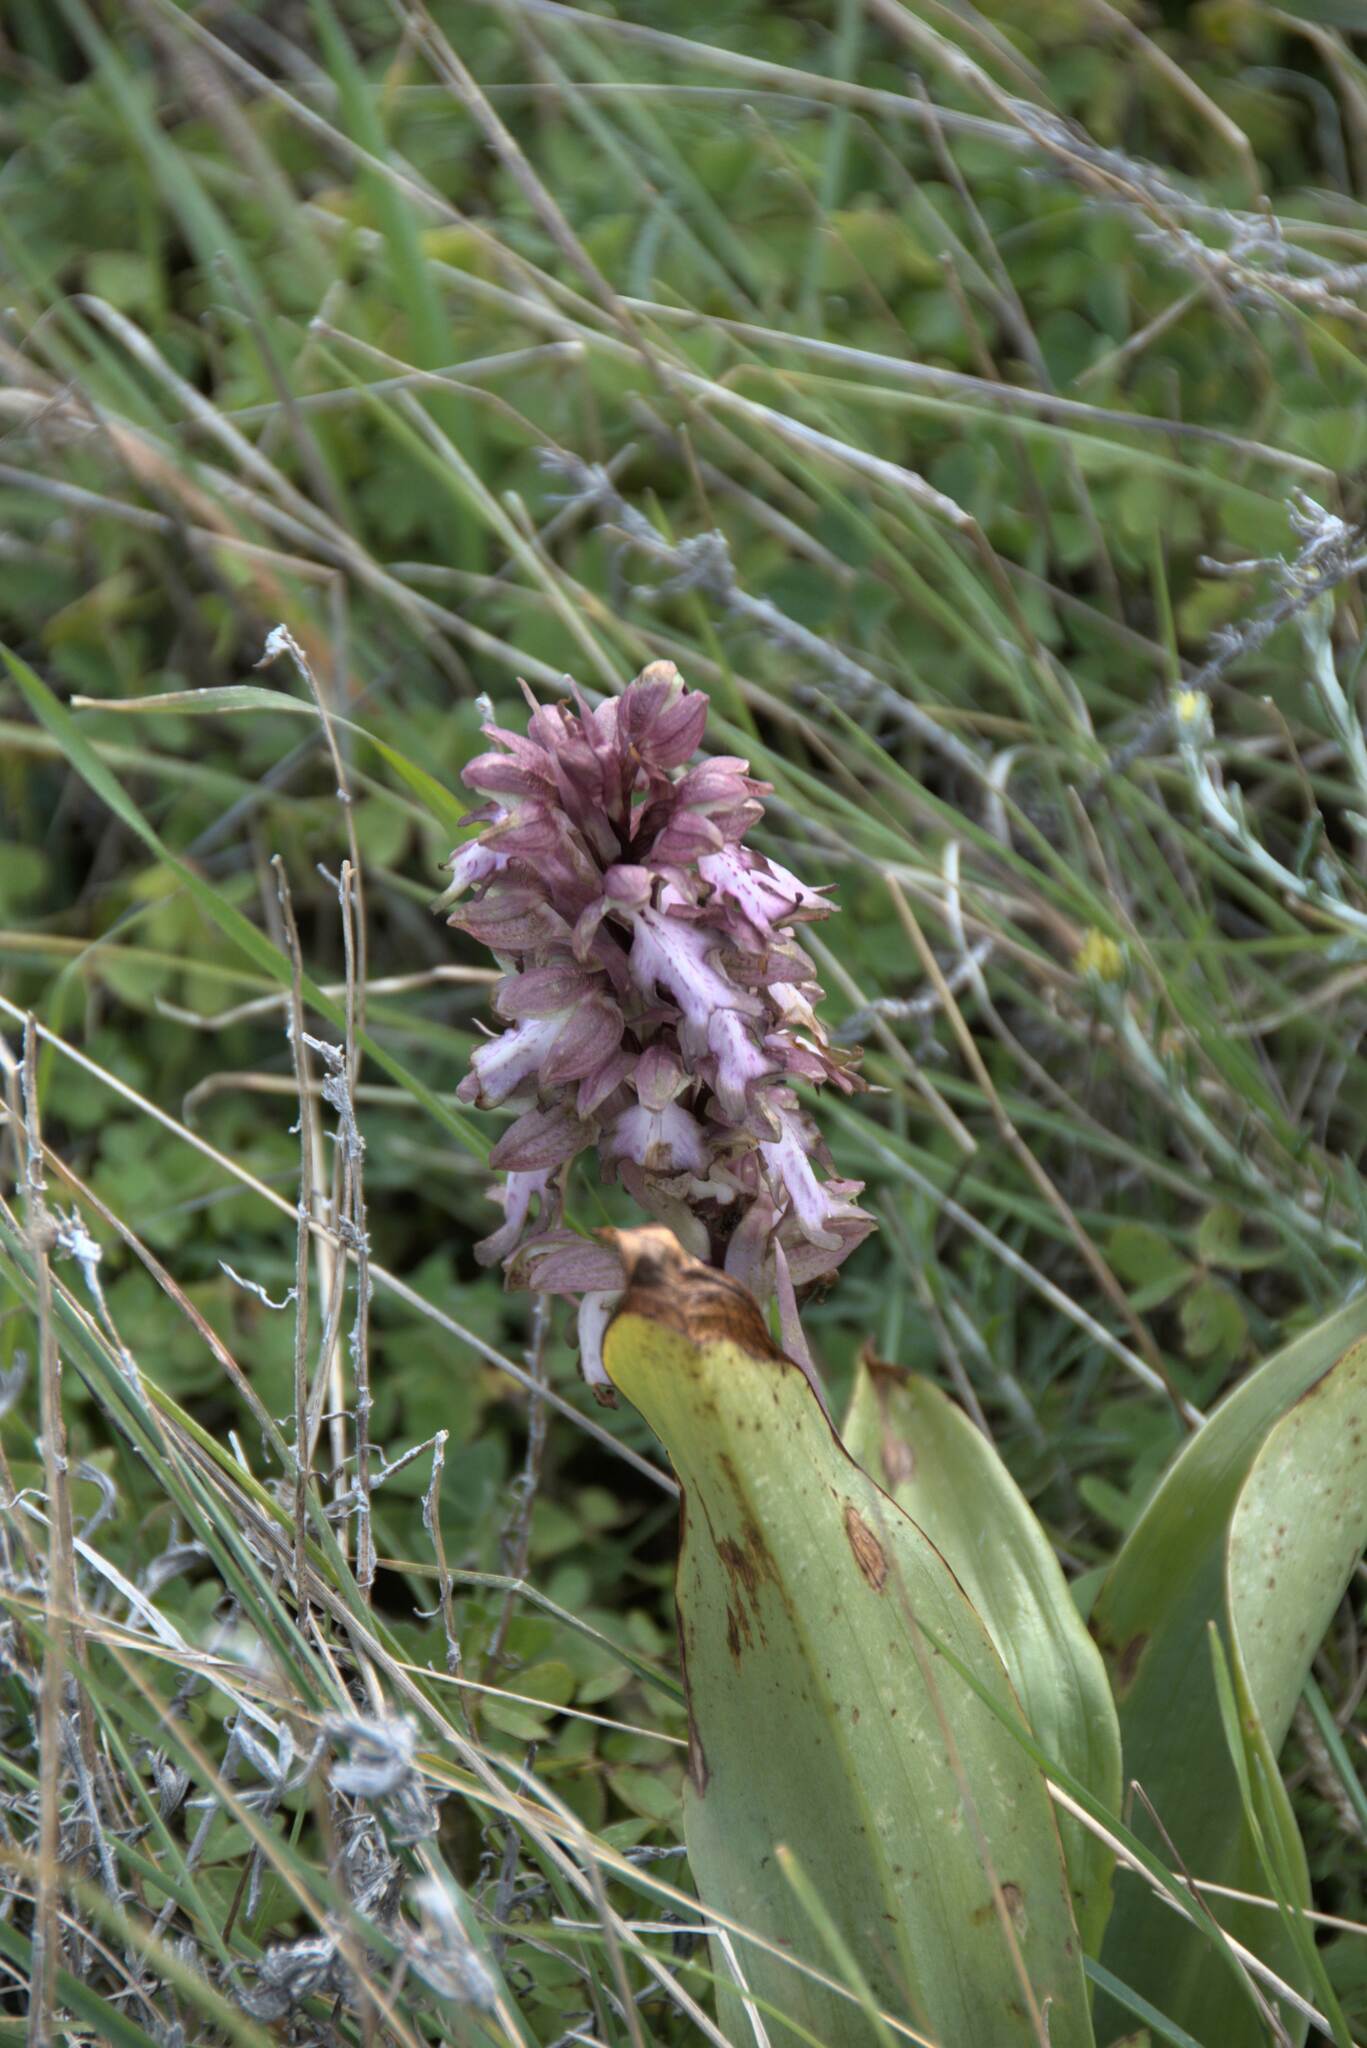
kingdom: Plantae
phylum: Tracheophyta
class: Liliopsida
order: Asparagales
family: Orchidaceae
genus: Himantoglossum
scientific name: Himantoglossum robertianum
